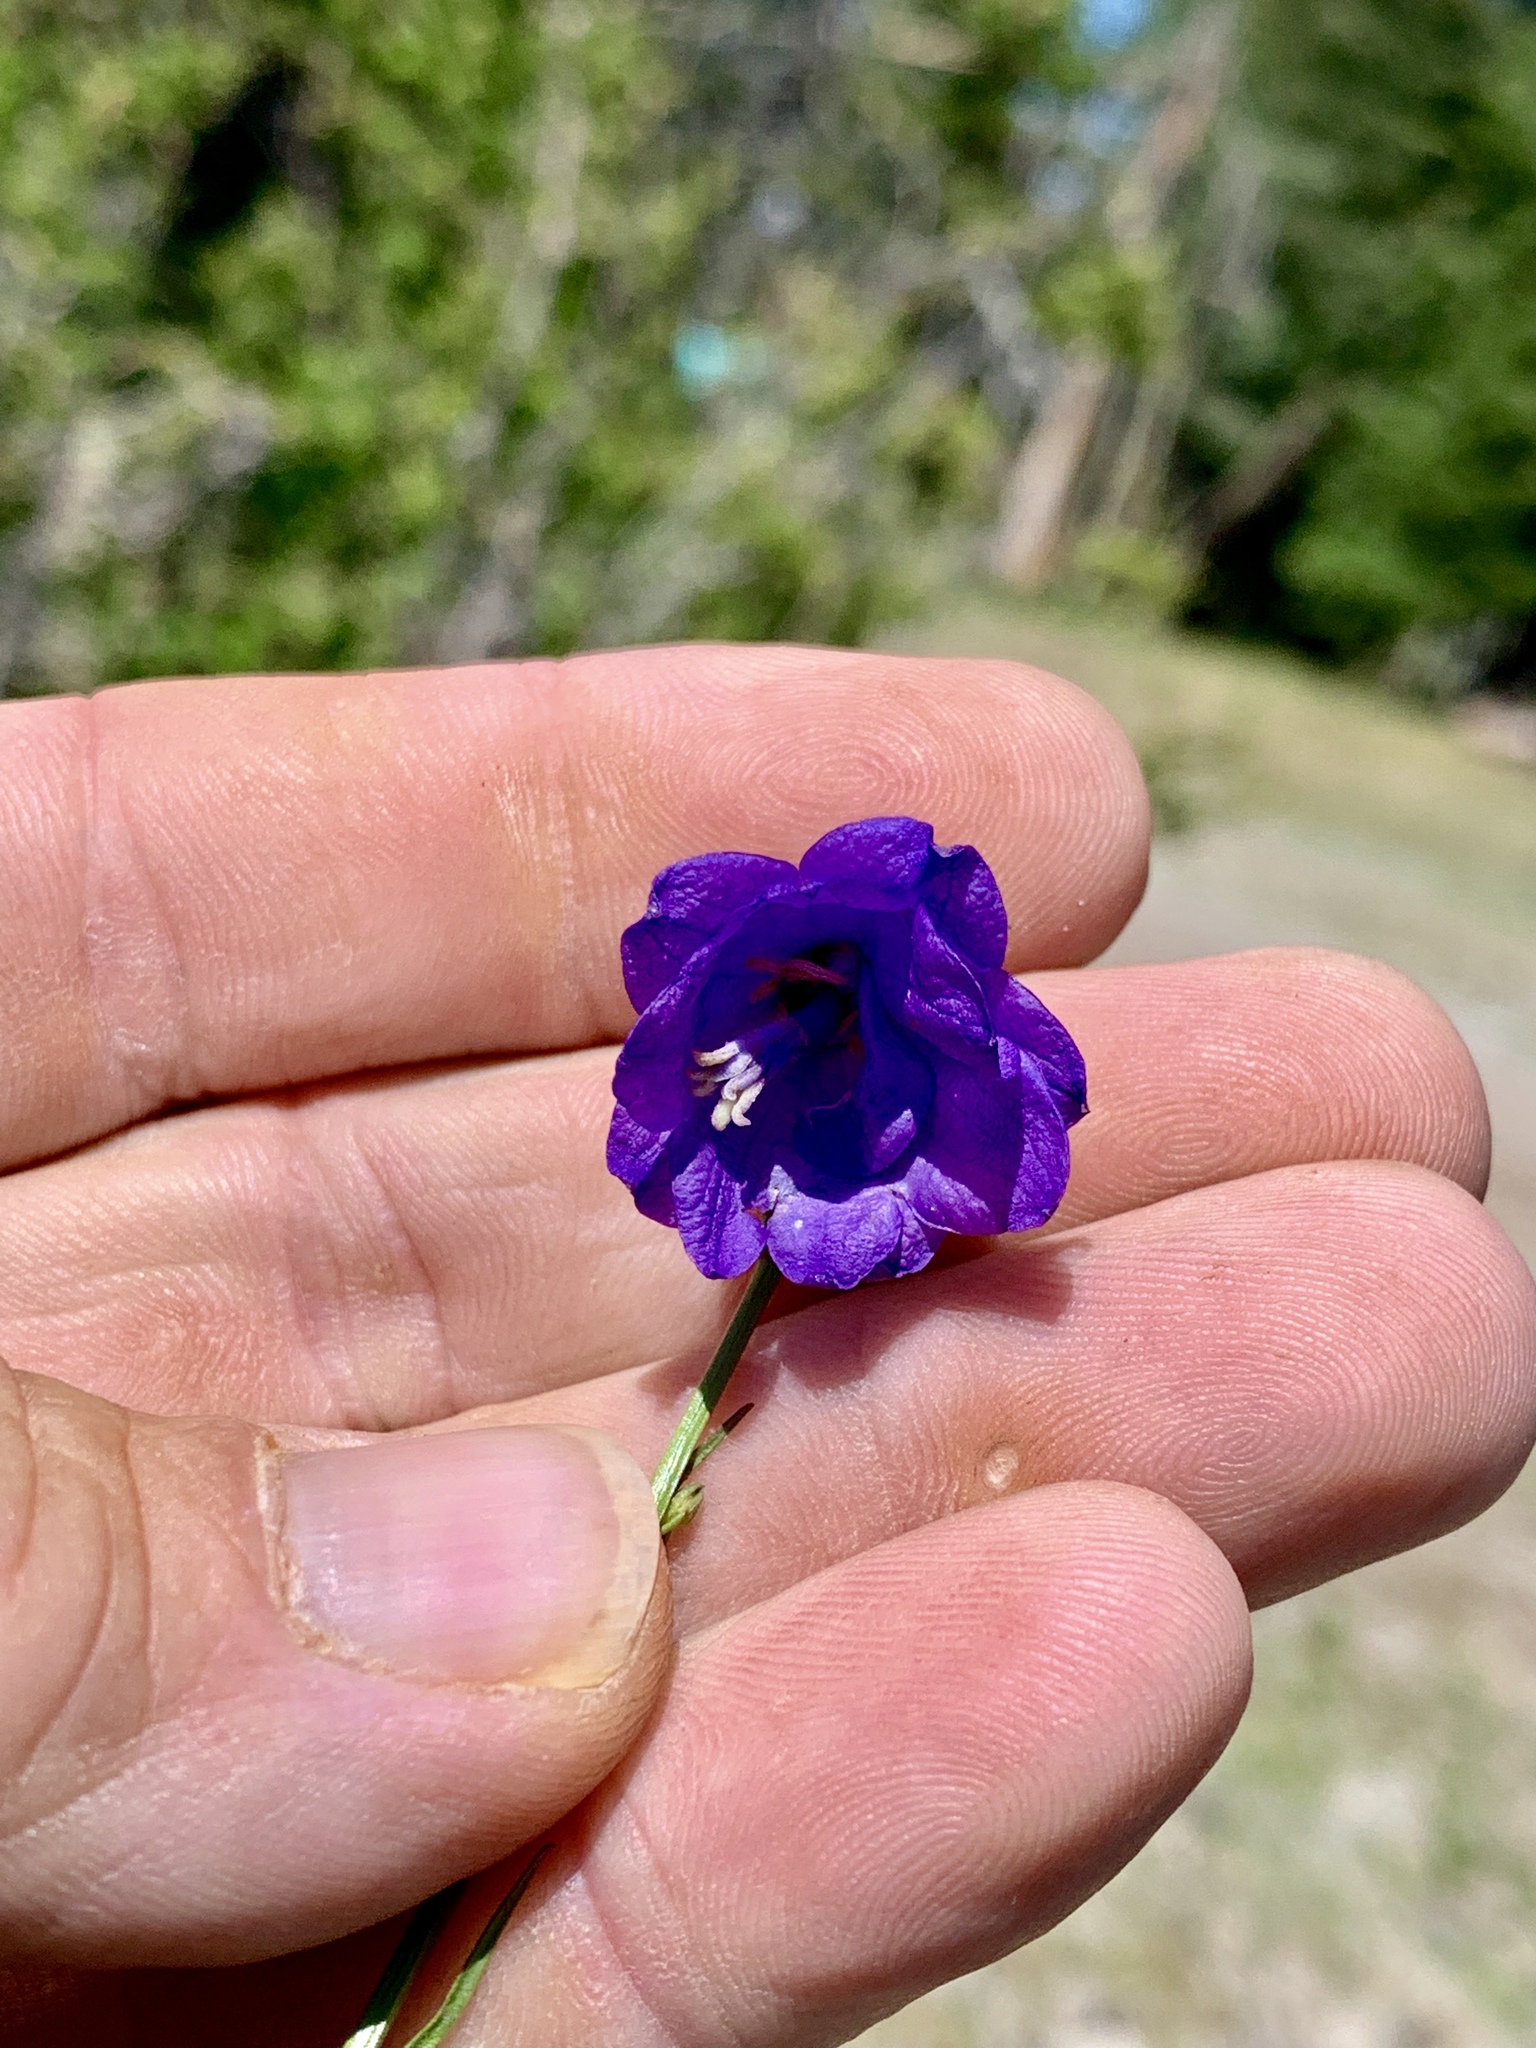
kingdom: Plantae
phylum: Tracheophyta
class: Magnoliopsida
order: Asterales
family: Campanulaceae
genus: Campanula
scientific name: Campanula petiolata
